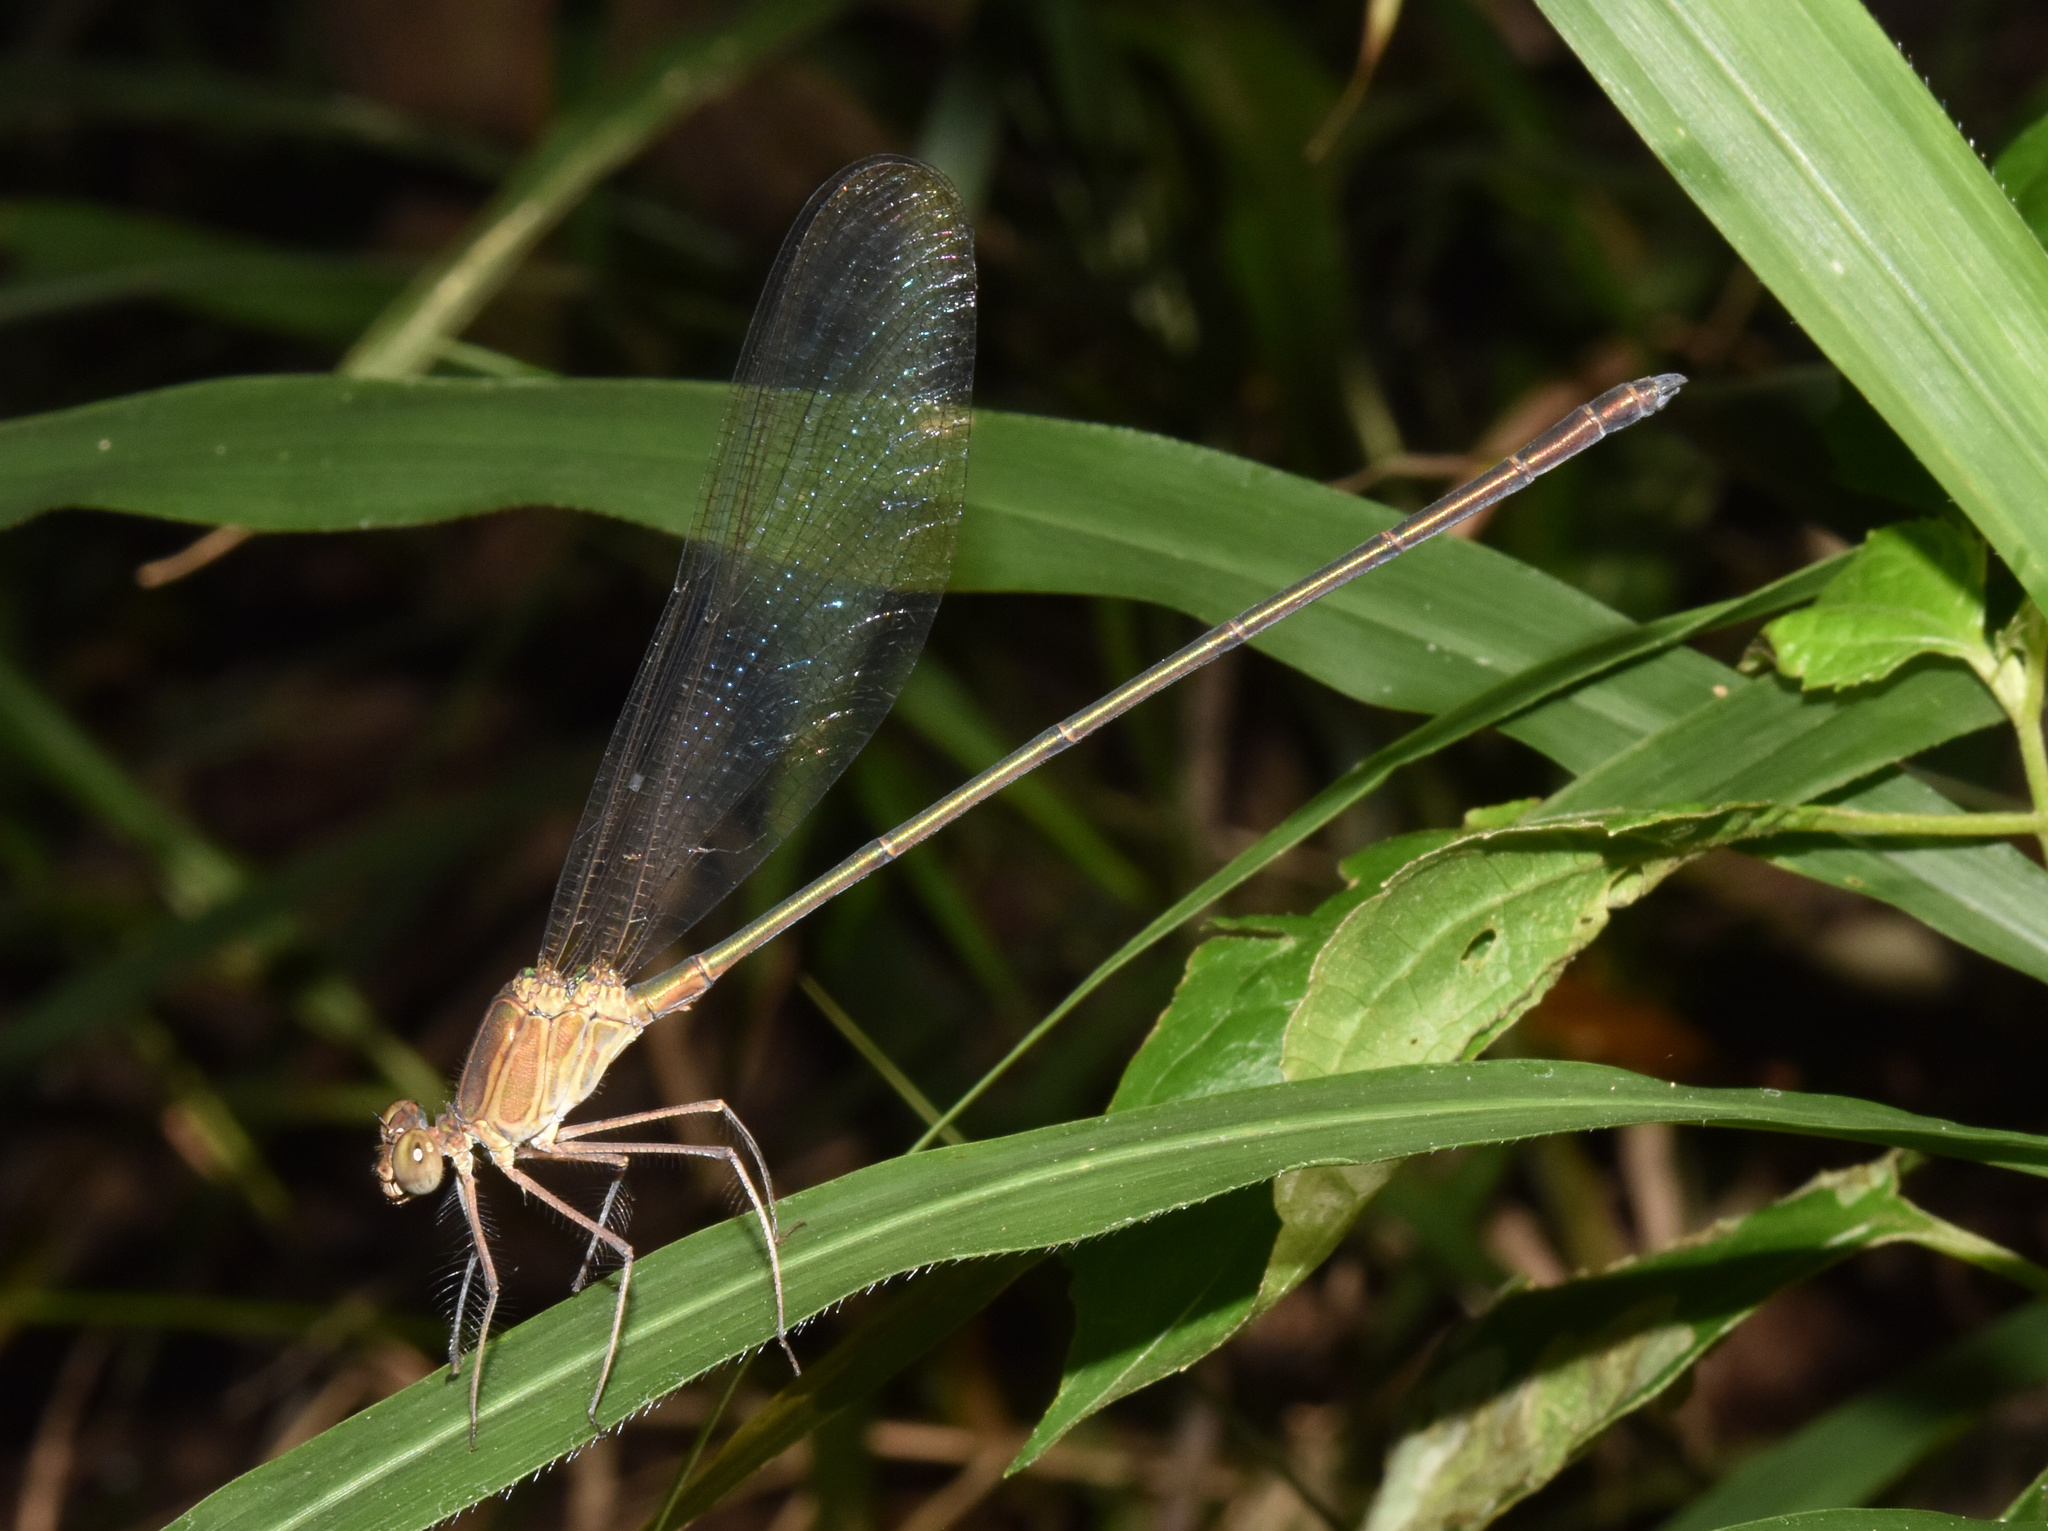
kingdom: Animalia
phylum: Arthropoda
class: Insecta
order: Odonata
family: Calopterygidae
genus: Phaon
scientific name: Phaon iridipennis
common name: Glistening demoiselle
